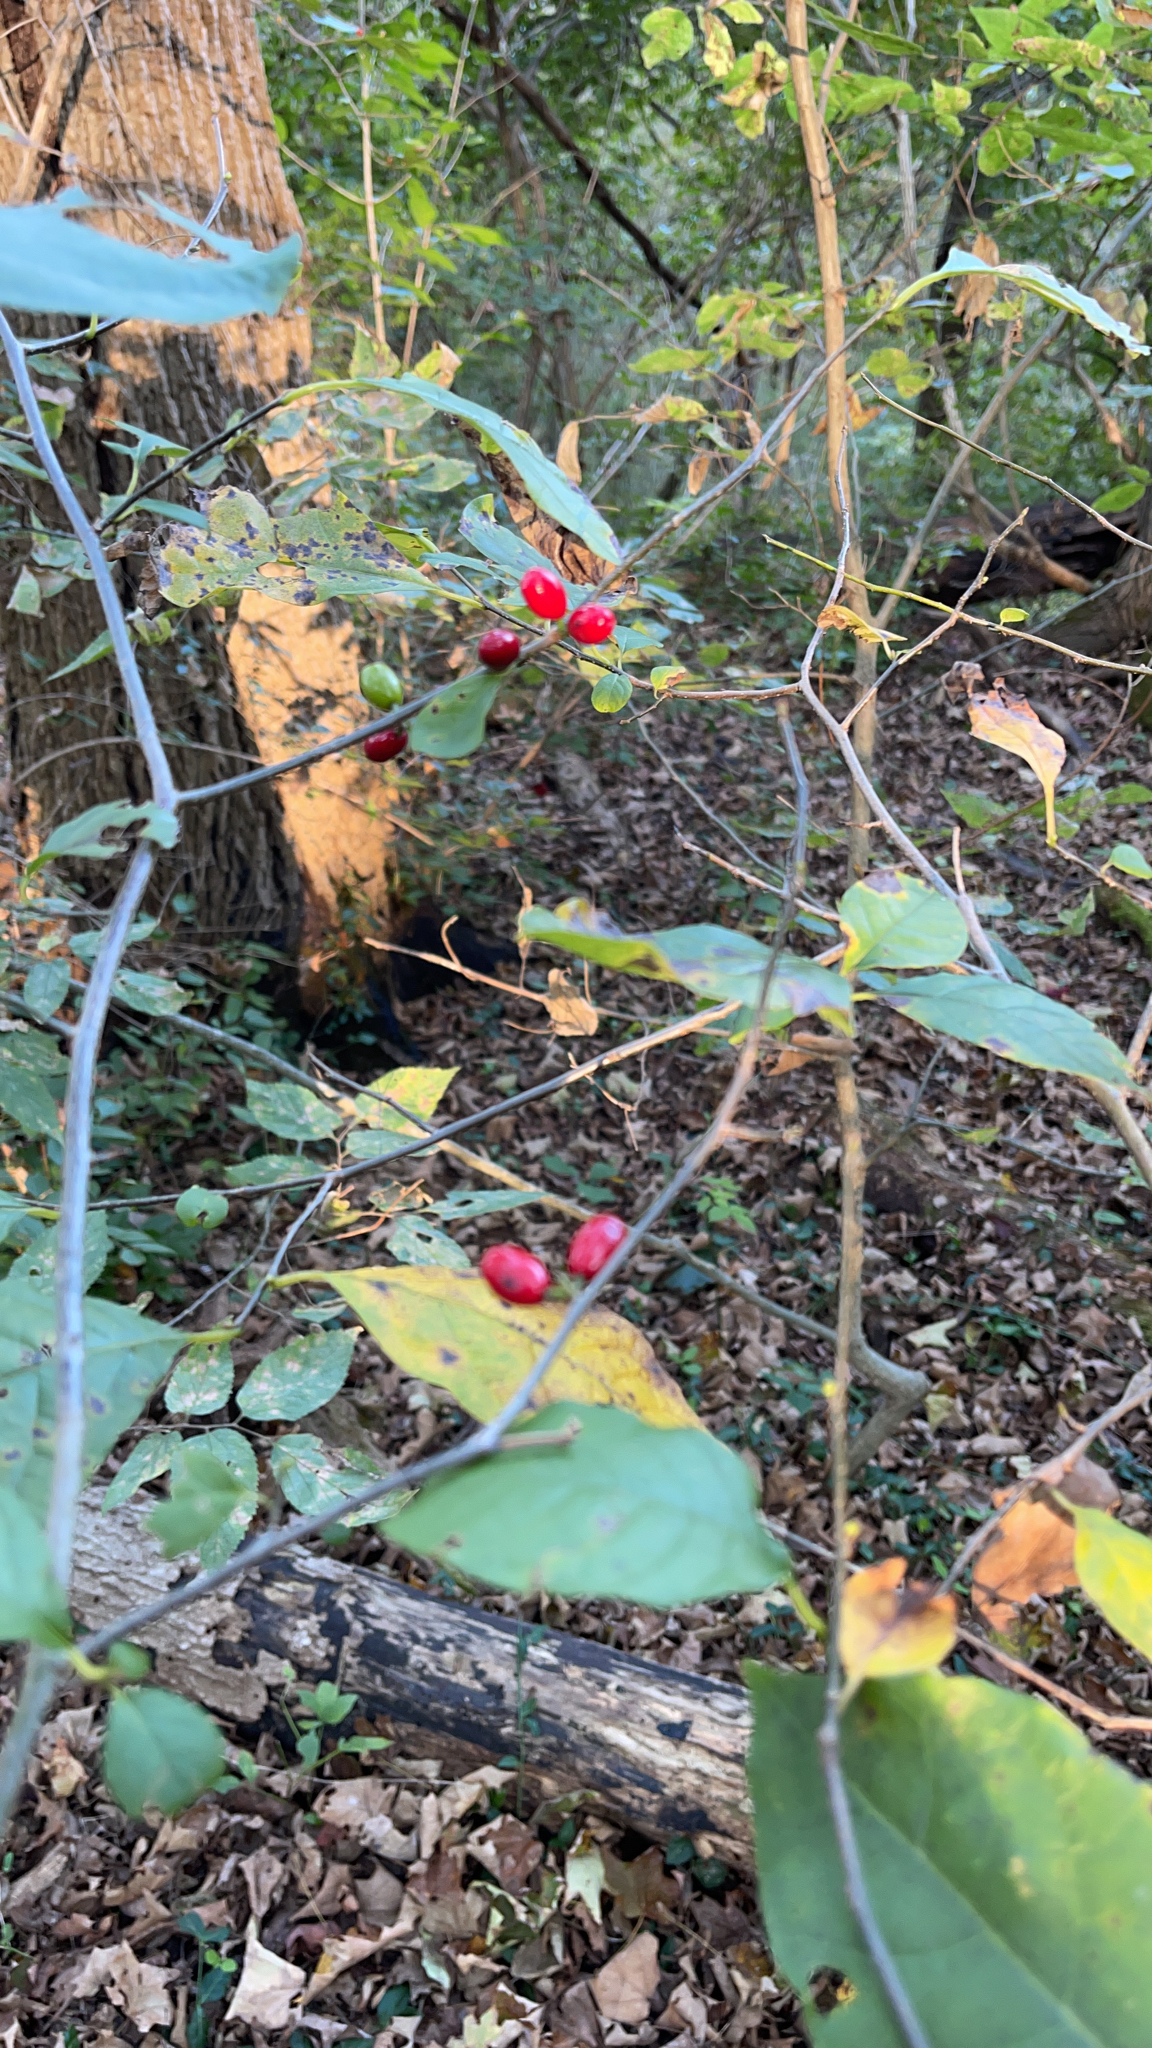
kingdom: Plantae
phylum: Tracheophyta
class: Magnoliopsida
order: Laurales
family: Lauraceae
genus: Lindera
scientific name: Lindera benzoin
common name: Spicebush
